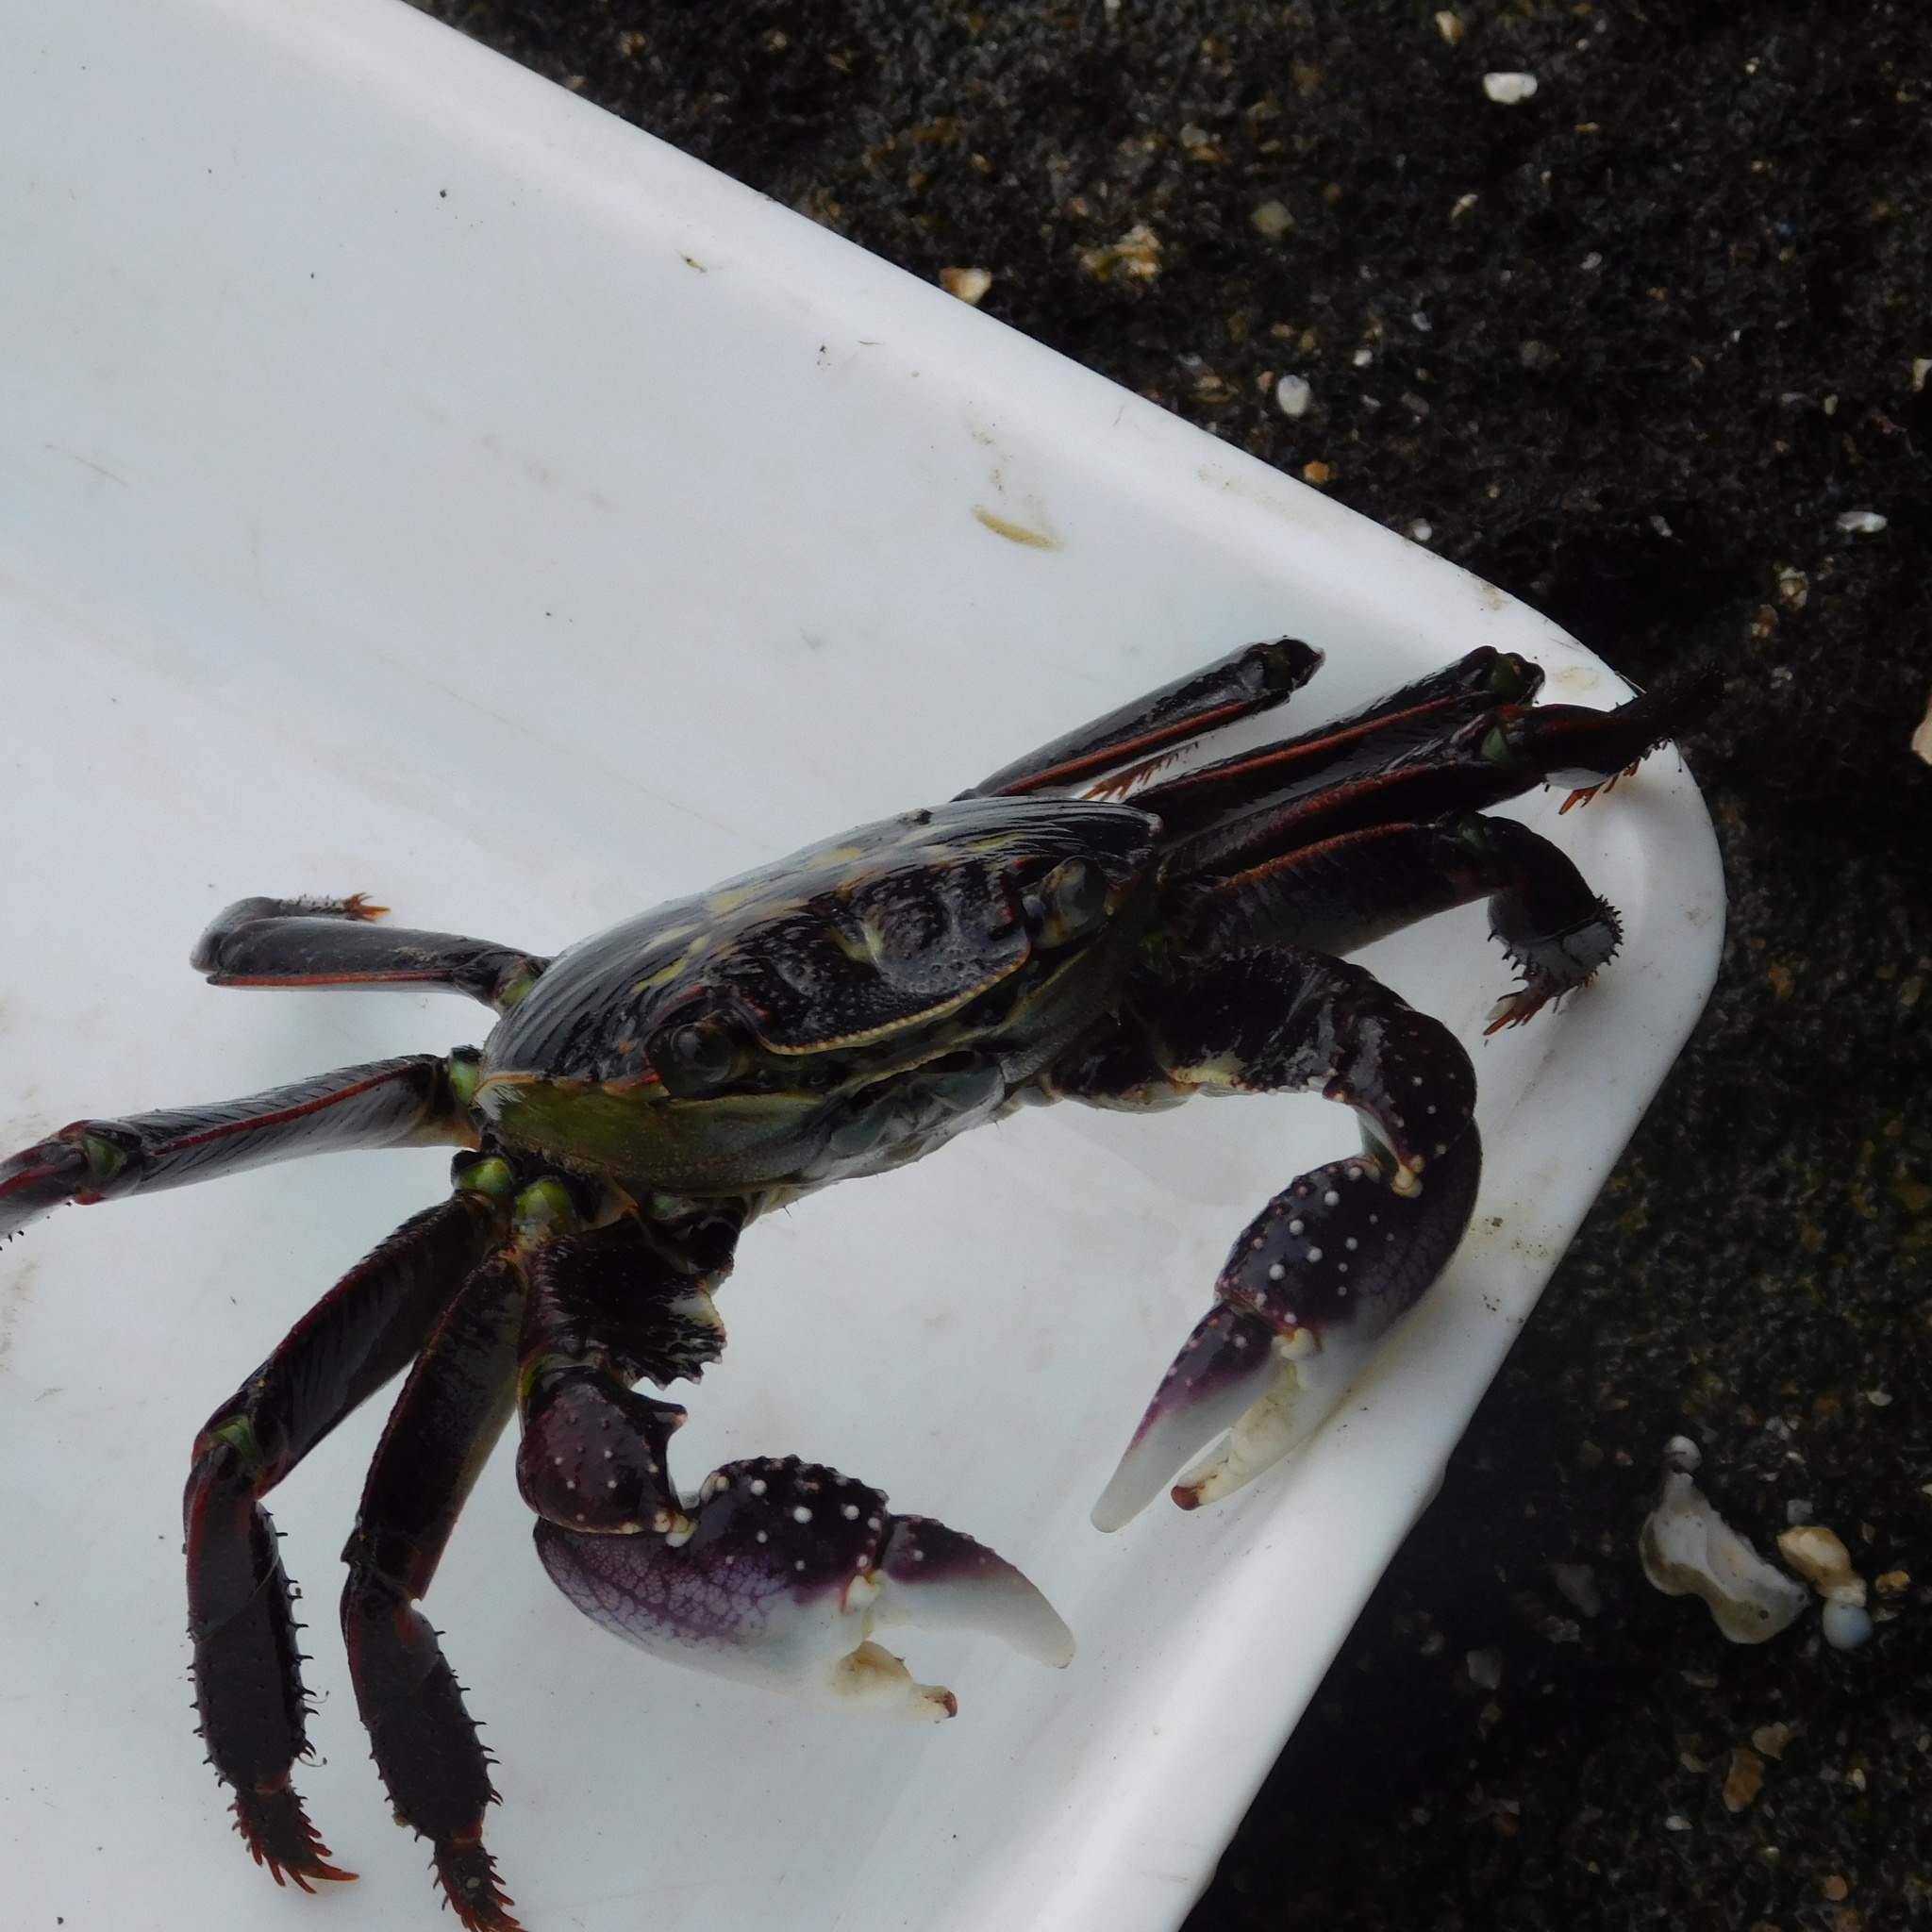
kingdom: Animalia
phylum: Arthropoda
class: Malacostraca
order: Decapoda
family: Grapsidae
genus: Leptograpsus
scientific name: Leptograpsus variegatus
